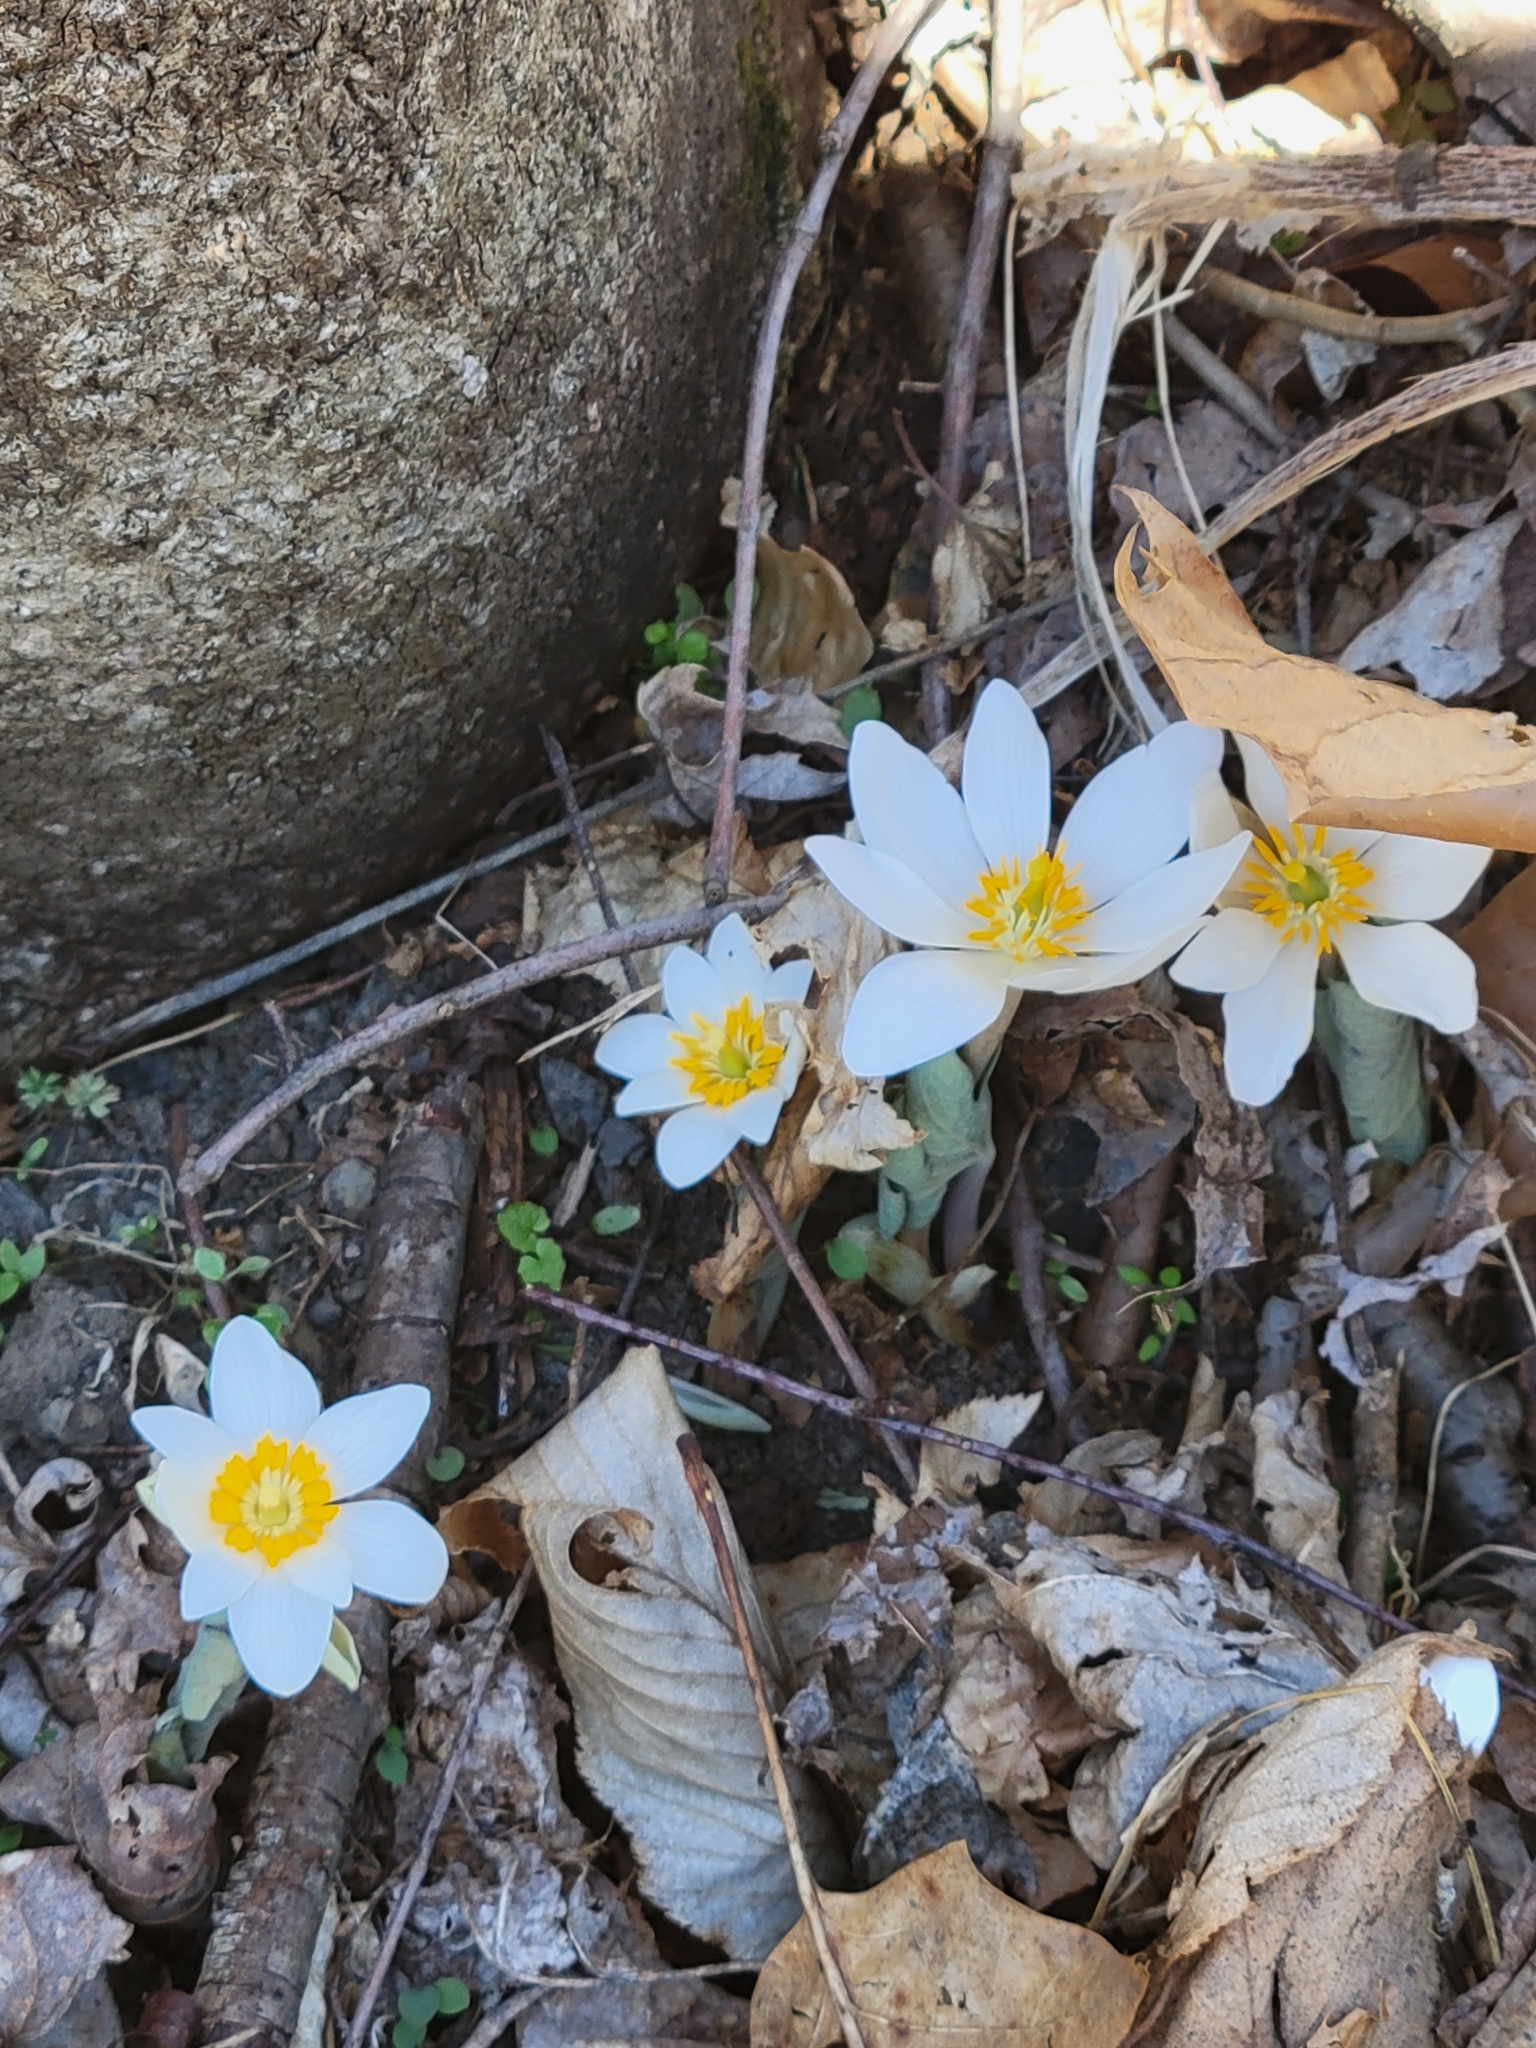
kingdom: Plantae
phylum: Tracheophyta
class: Magnoliopsida
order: Ranunculales
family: Papaveraceae
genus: Sanguinaria
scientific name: Sanguinaria canadensis
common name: Bloodroot
